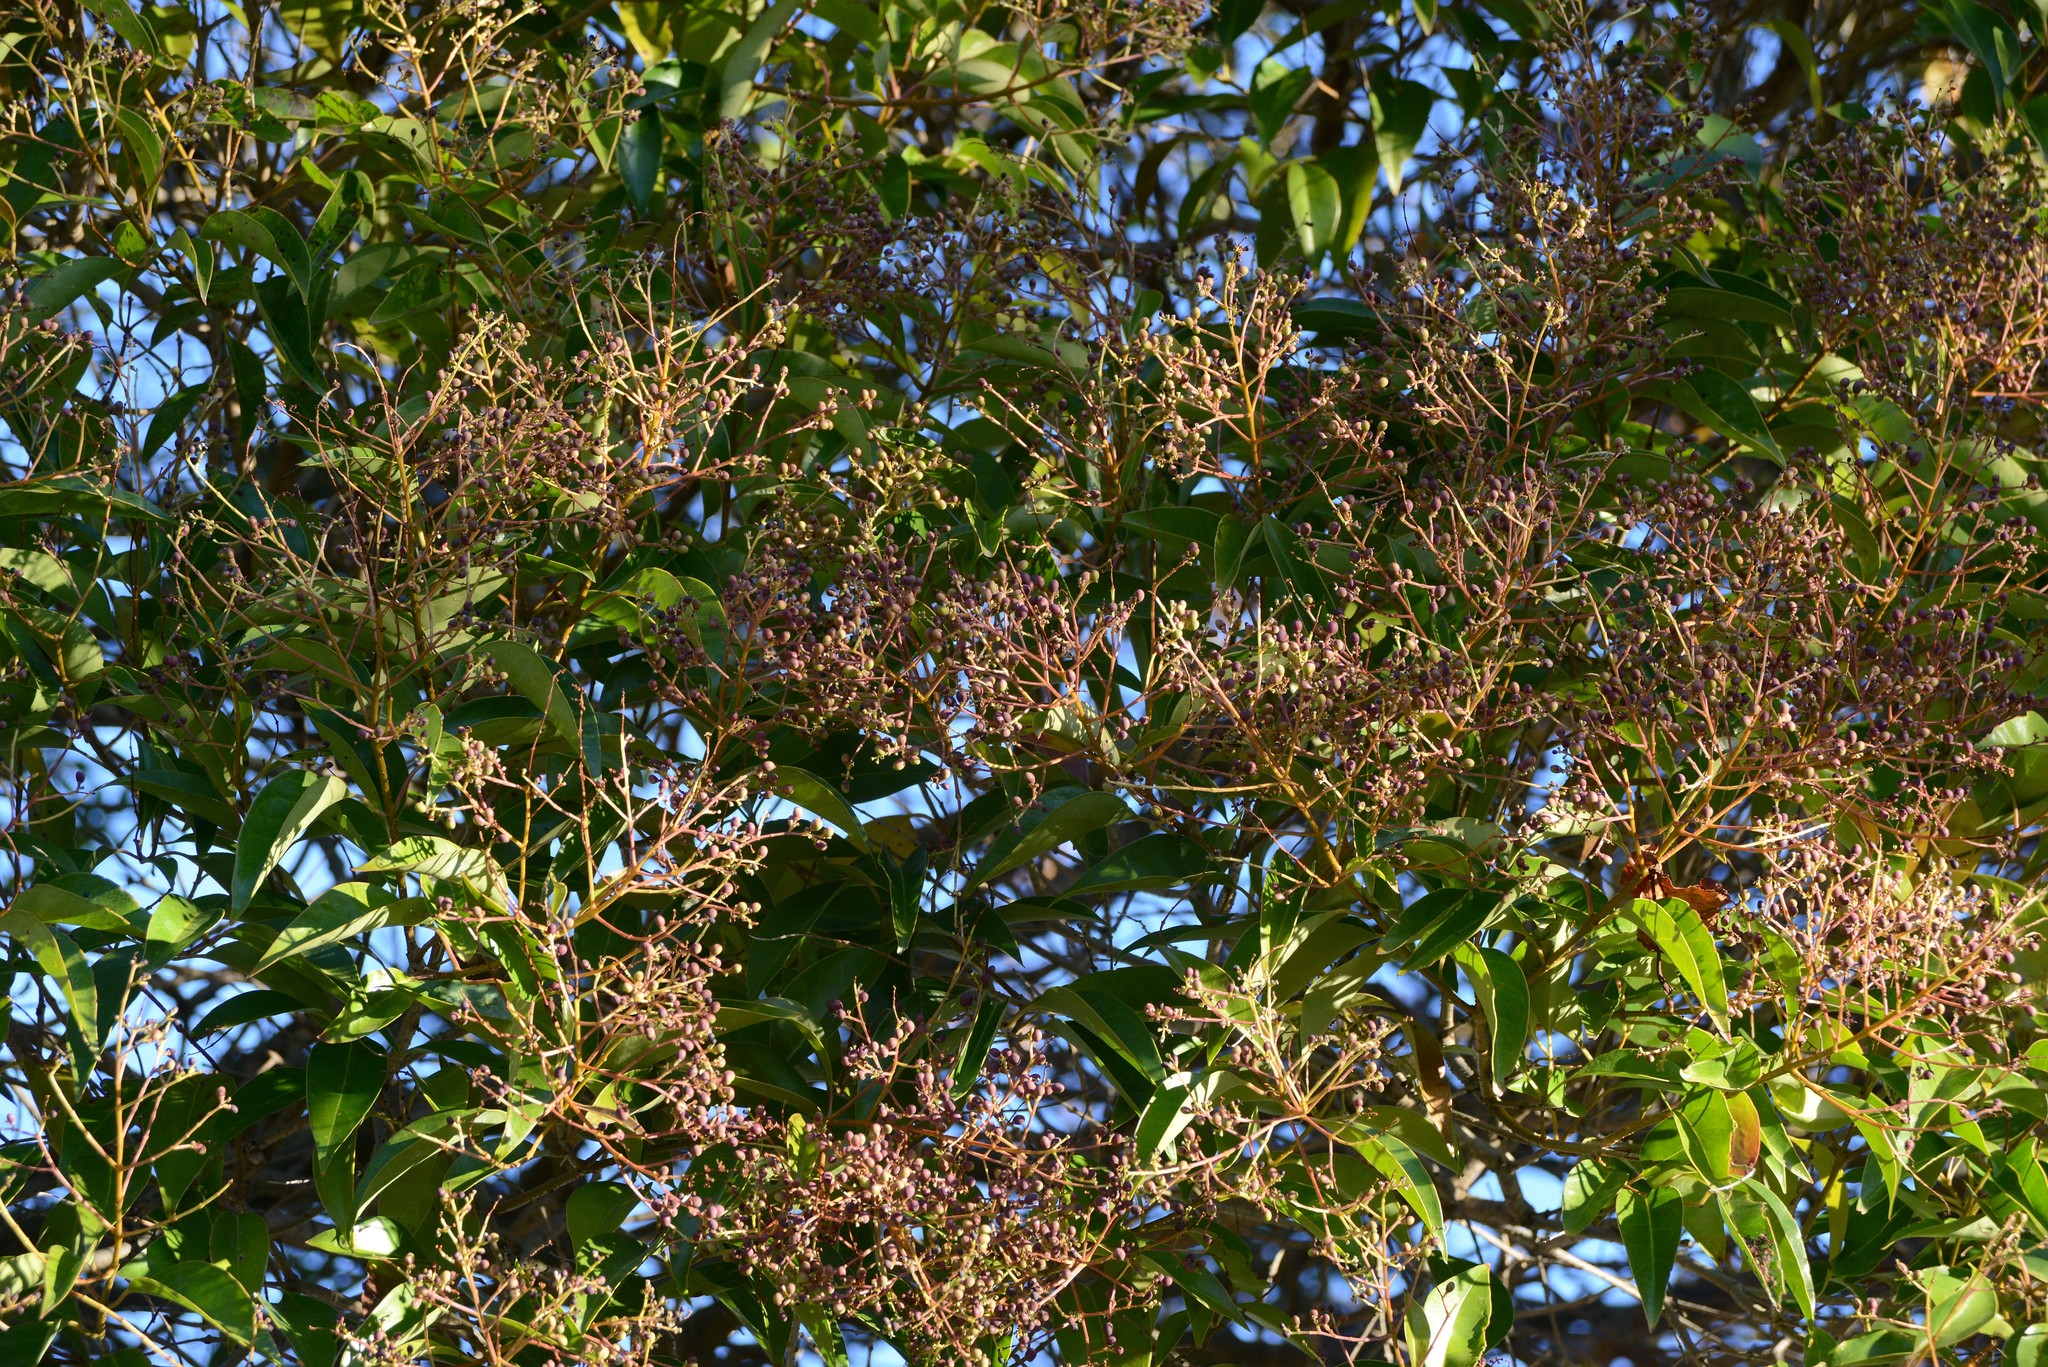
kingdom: Plantae
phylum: Tracheophyta
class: Magnoliopsida
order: Lamiales
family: Oleaceae
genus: Ligustrum
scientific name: Ligustrum lucidum
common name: Glossy privet
